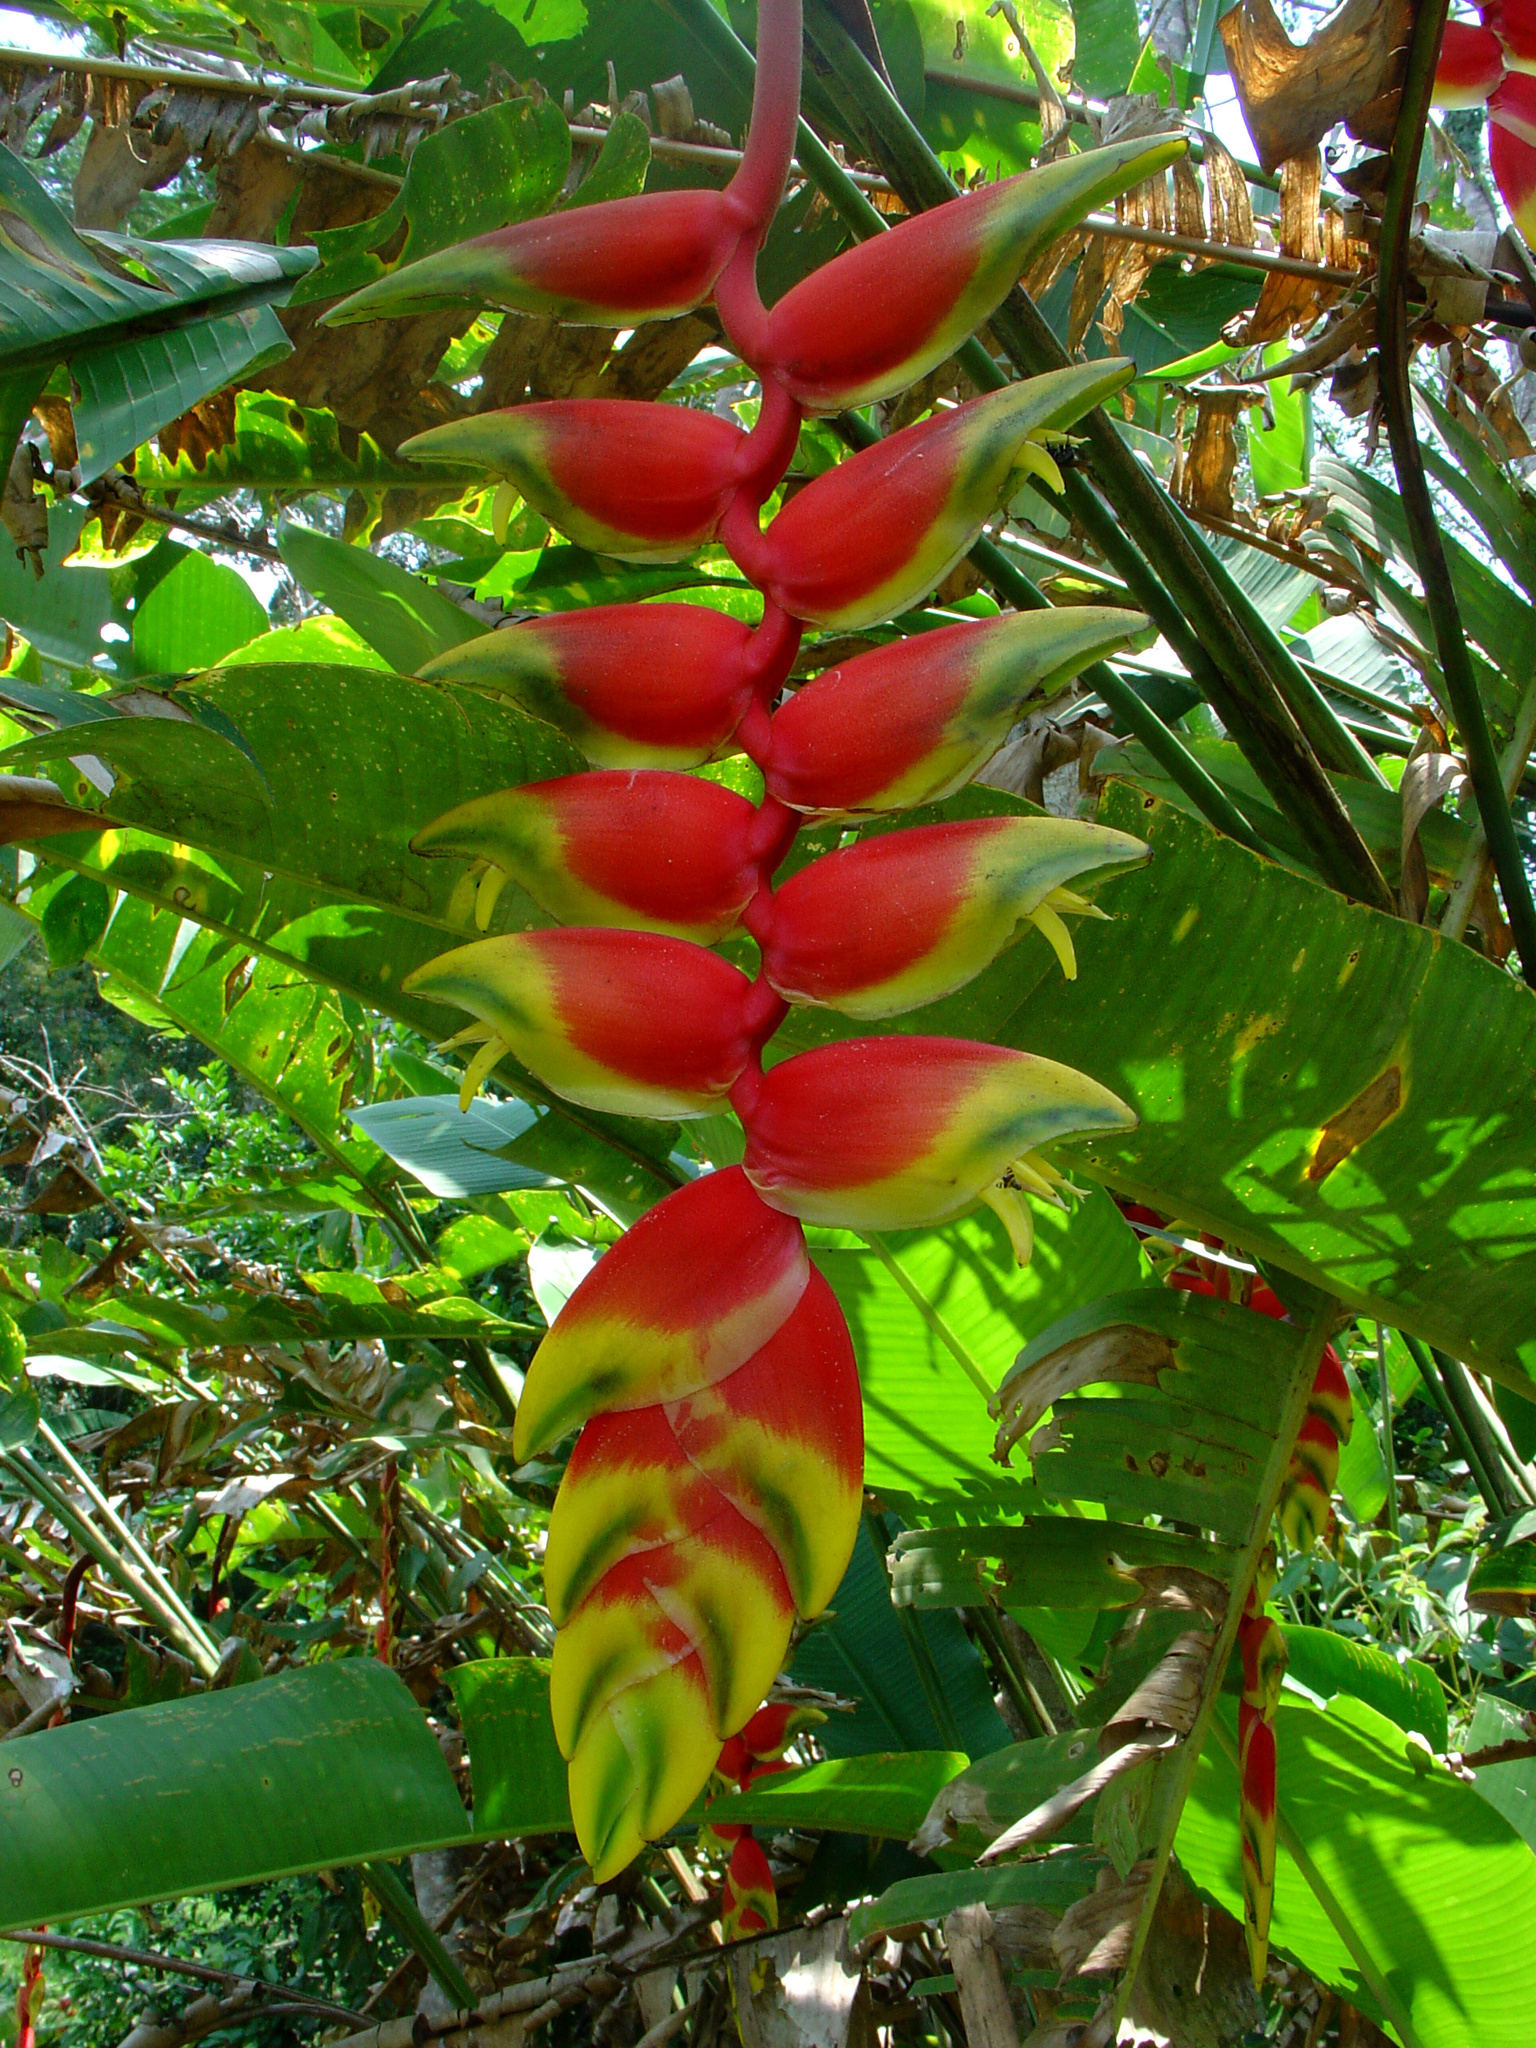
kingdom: Plantae
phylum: Tracheophyta
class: Liliopsida
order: Zingiberales
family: Heliconiaceae
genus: Heliconia
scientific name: Heliconia rostrata
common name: False bird of paradise
